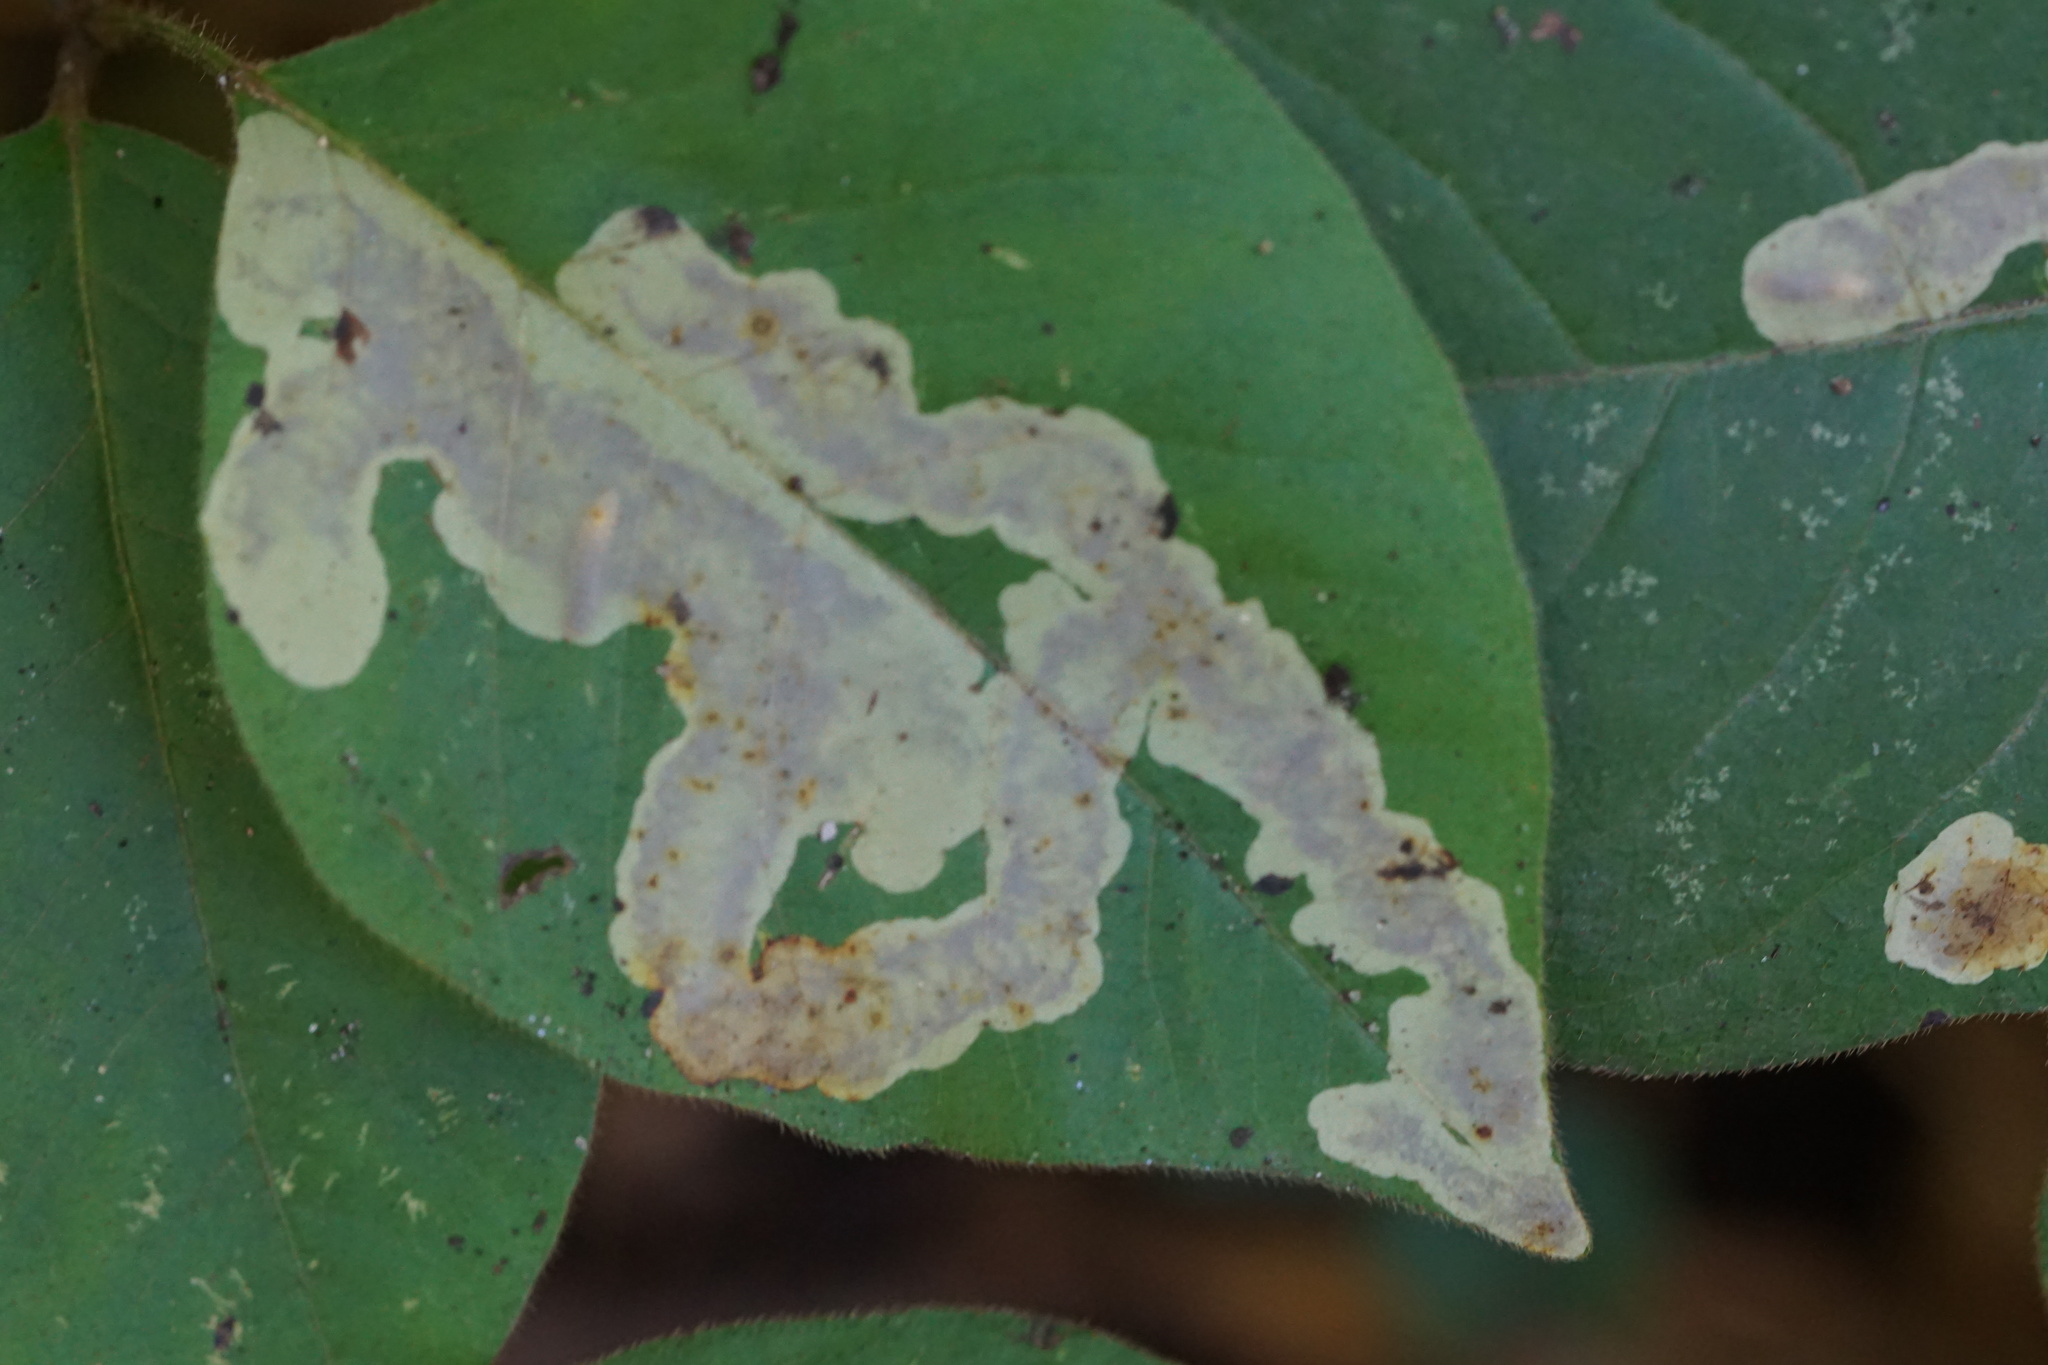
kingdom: Animalia
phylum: Arthropoda
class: Insecta
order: Lepidoptera
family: Gracillariidae
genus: Cameraria
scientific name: Cameraria guttifinitella
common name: Poison ivy leaf-miner moth
